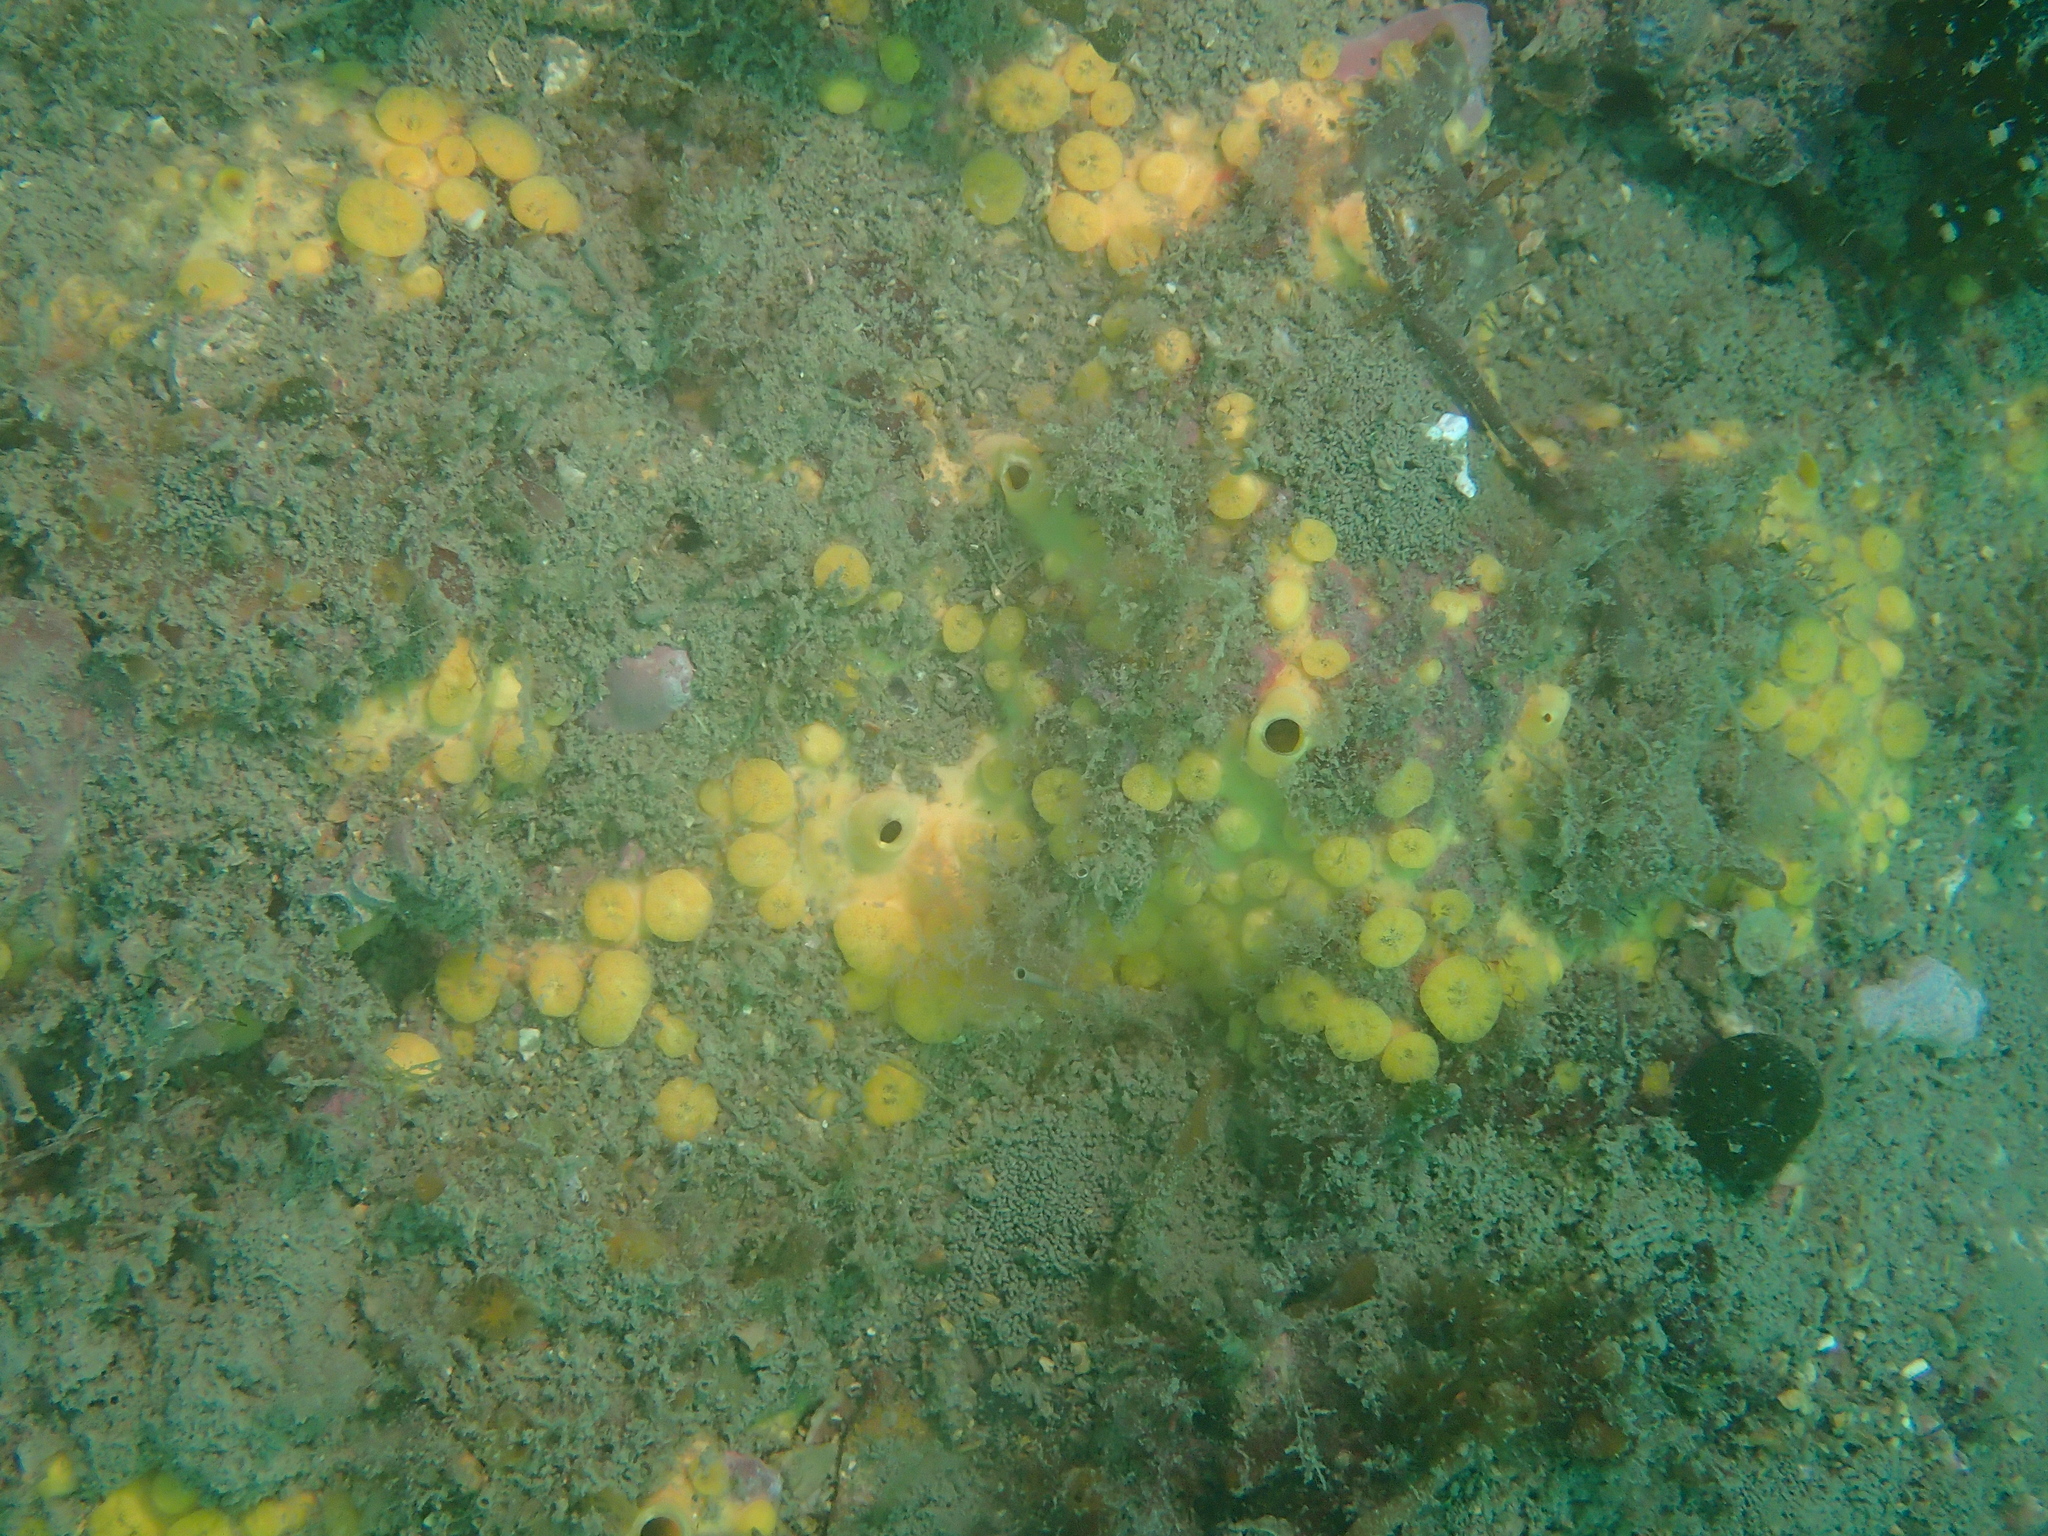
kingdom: Animalia
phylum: Porifera
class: Demospongiae
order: Clionaida
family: Clionaidae
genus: Cliona
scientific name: Cliona celata
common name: Boring sponge
